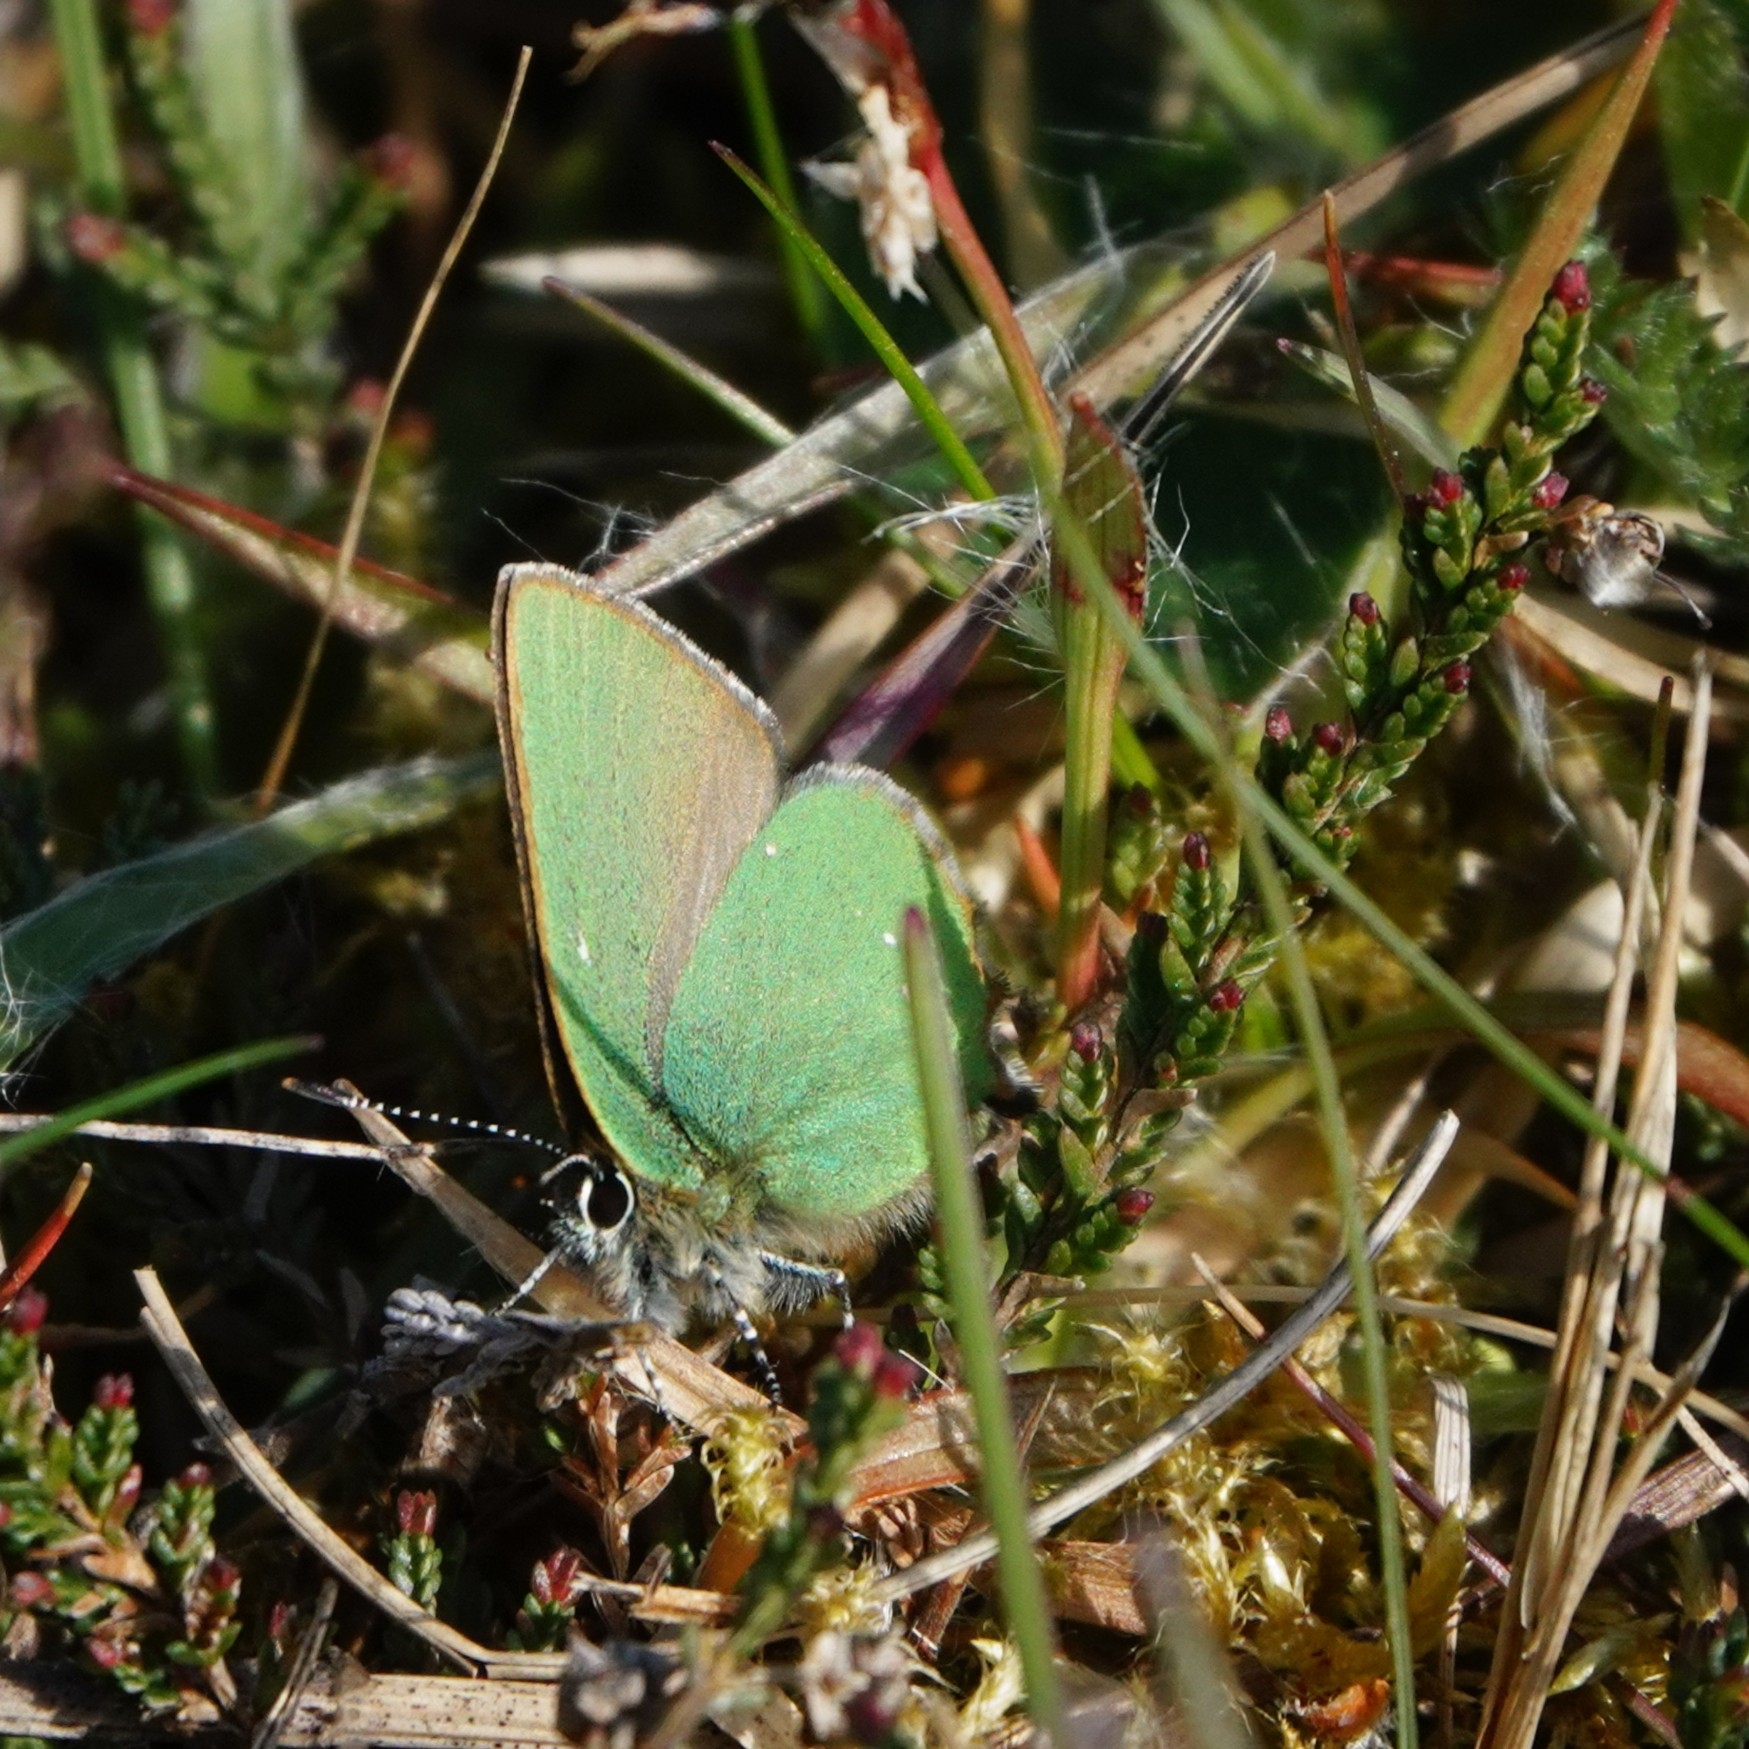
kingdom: Animalia
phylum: Arthropoda
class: Insecta
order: Lepidoptera
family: Lycaenidae
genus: Callophrys
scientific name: Callophrys rubi
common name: Green hairstreak
